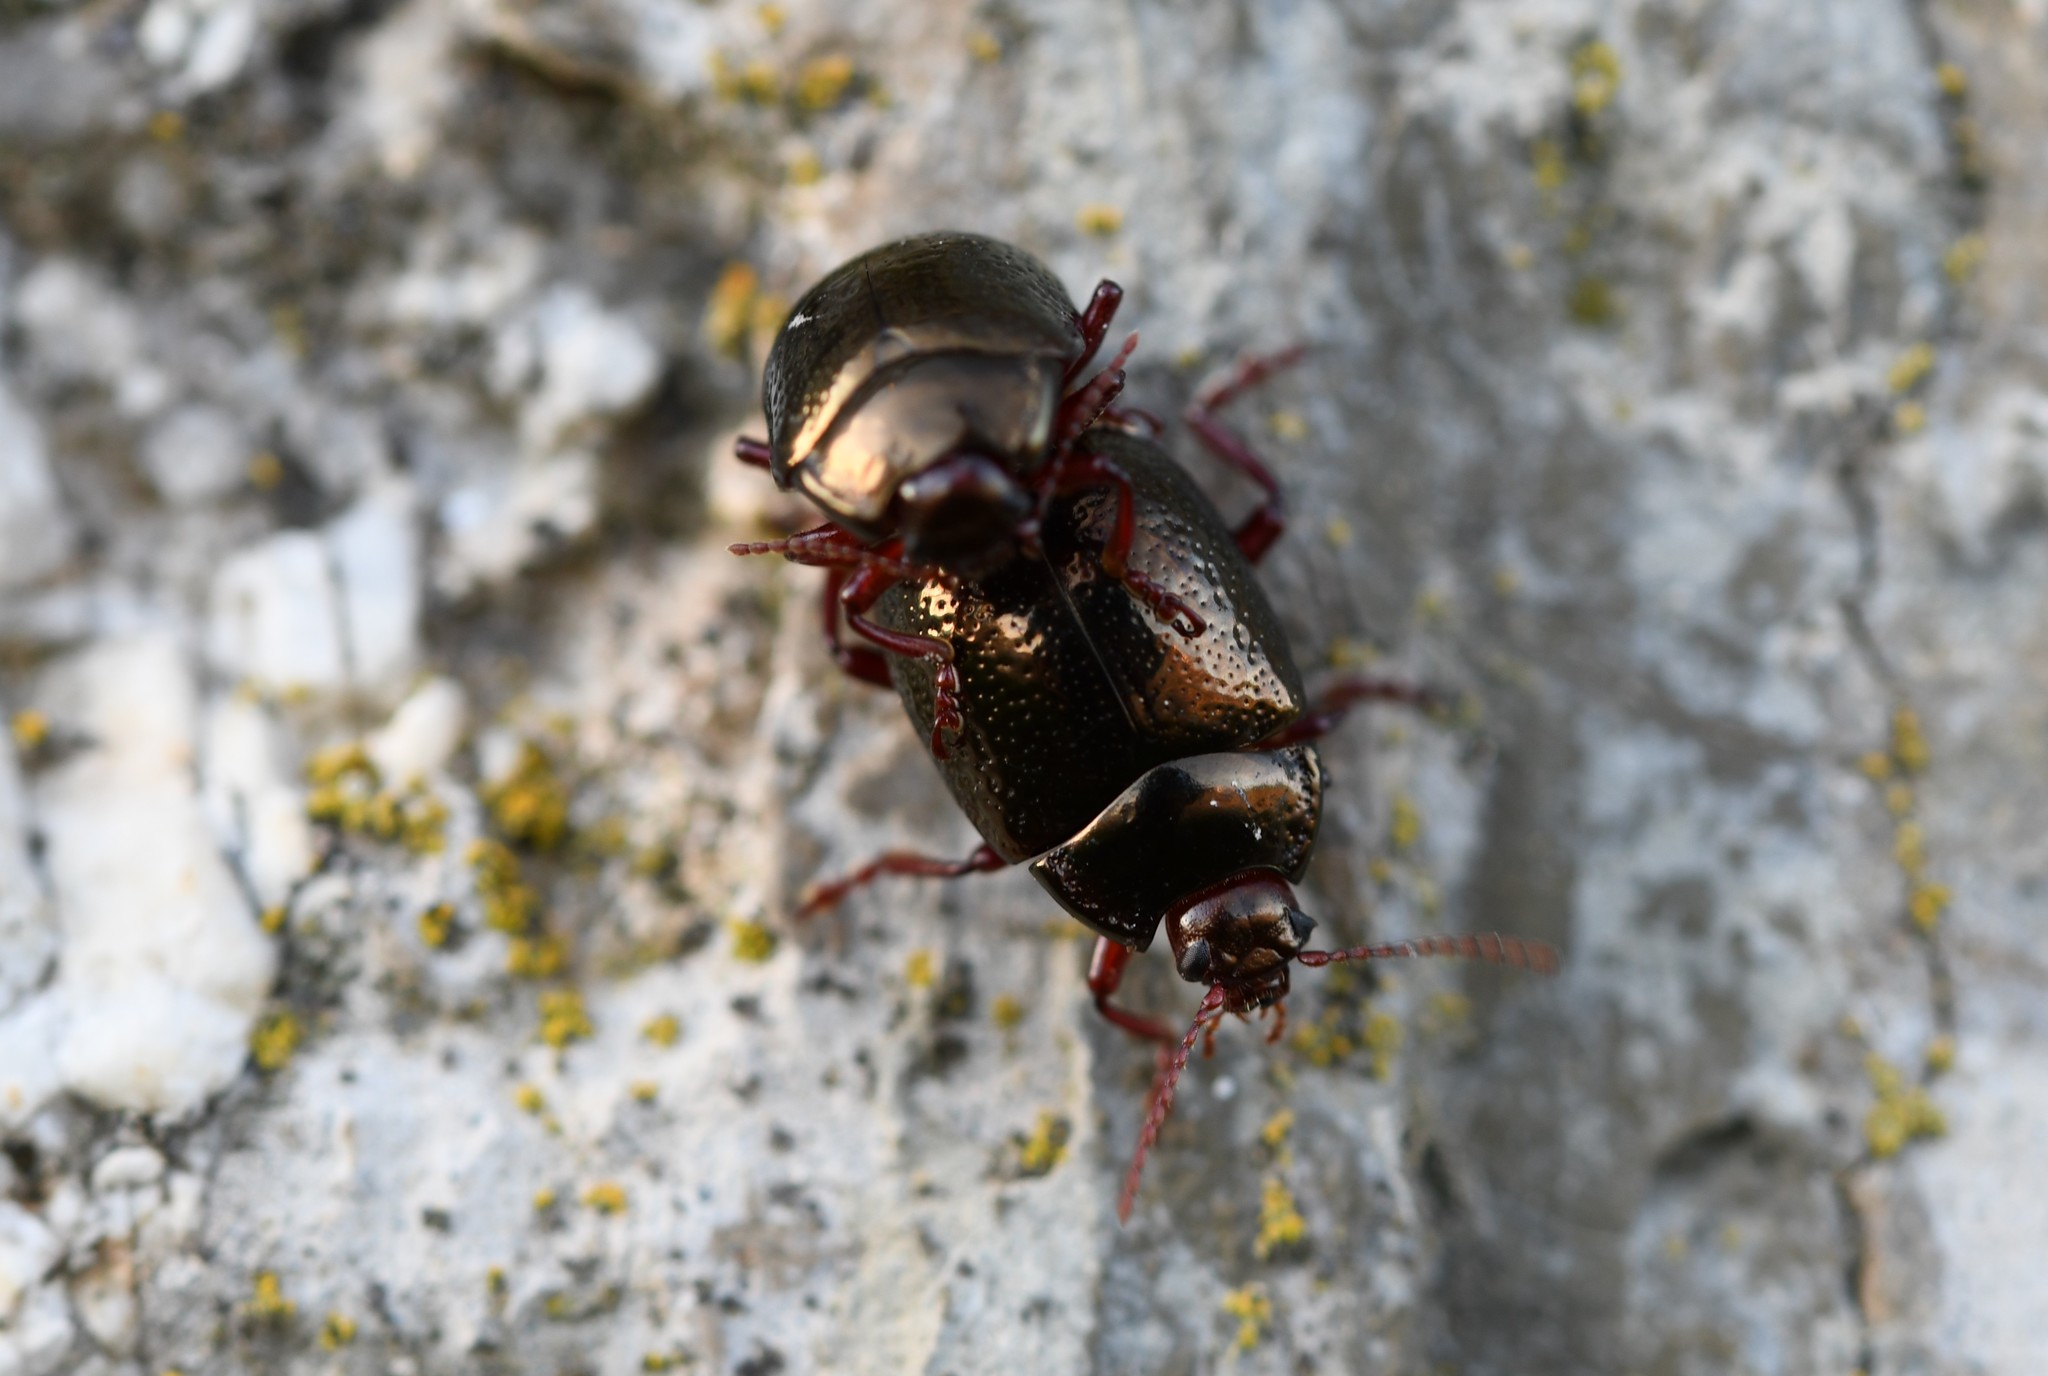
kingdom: Animalia
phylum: Arthropoda
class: Insecta
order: Coleoptera
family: Chrysomelidae
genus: Chrysolina
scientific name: Chrysolina bankii
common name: Leaf beetle
